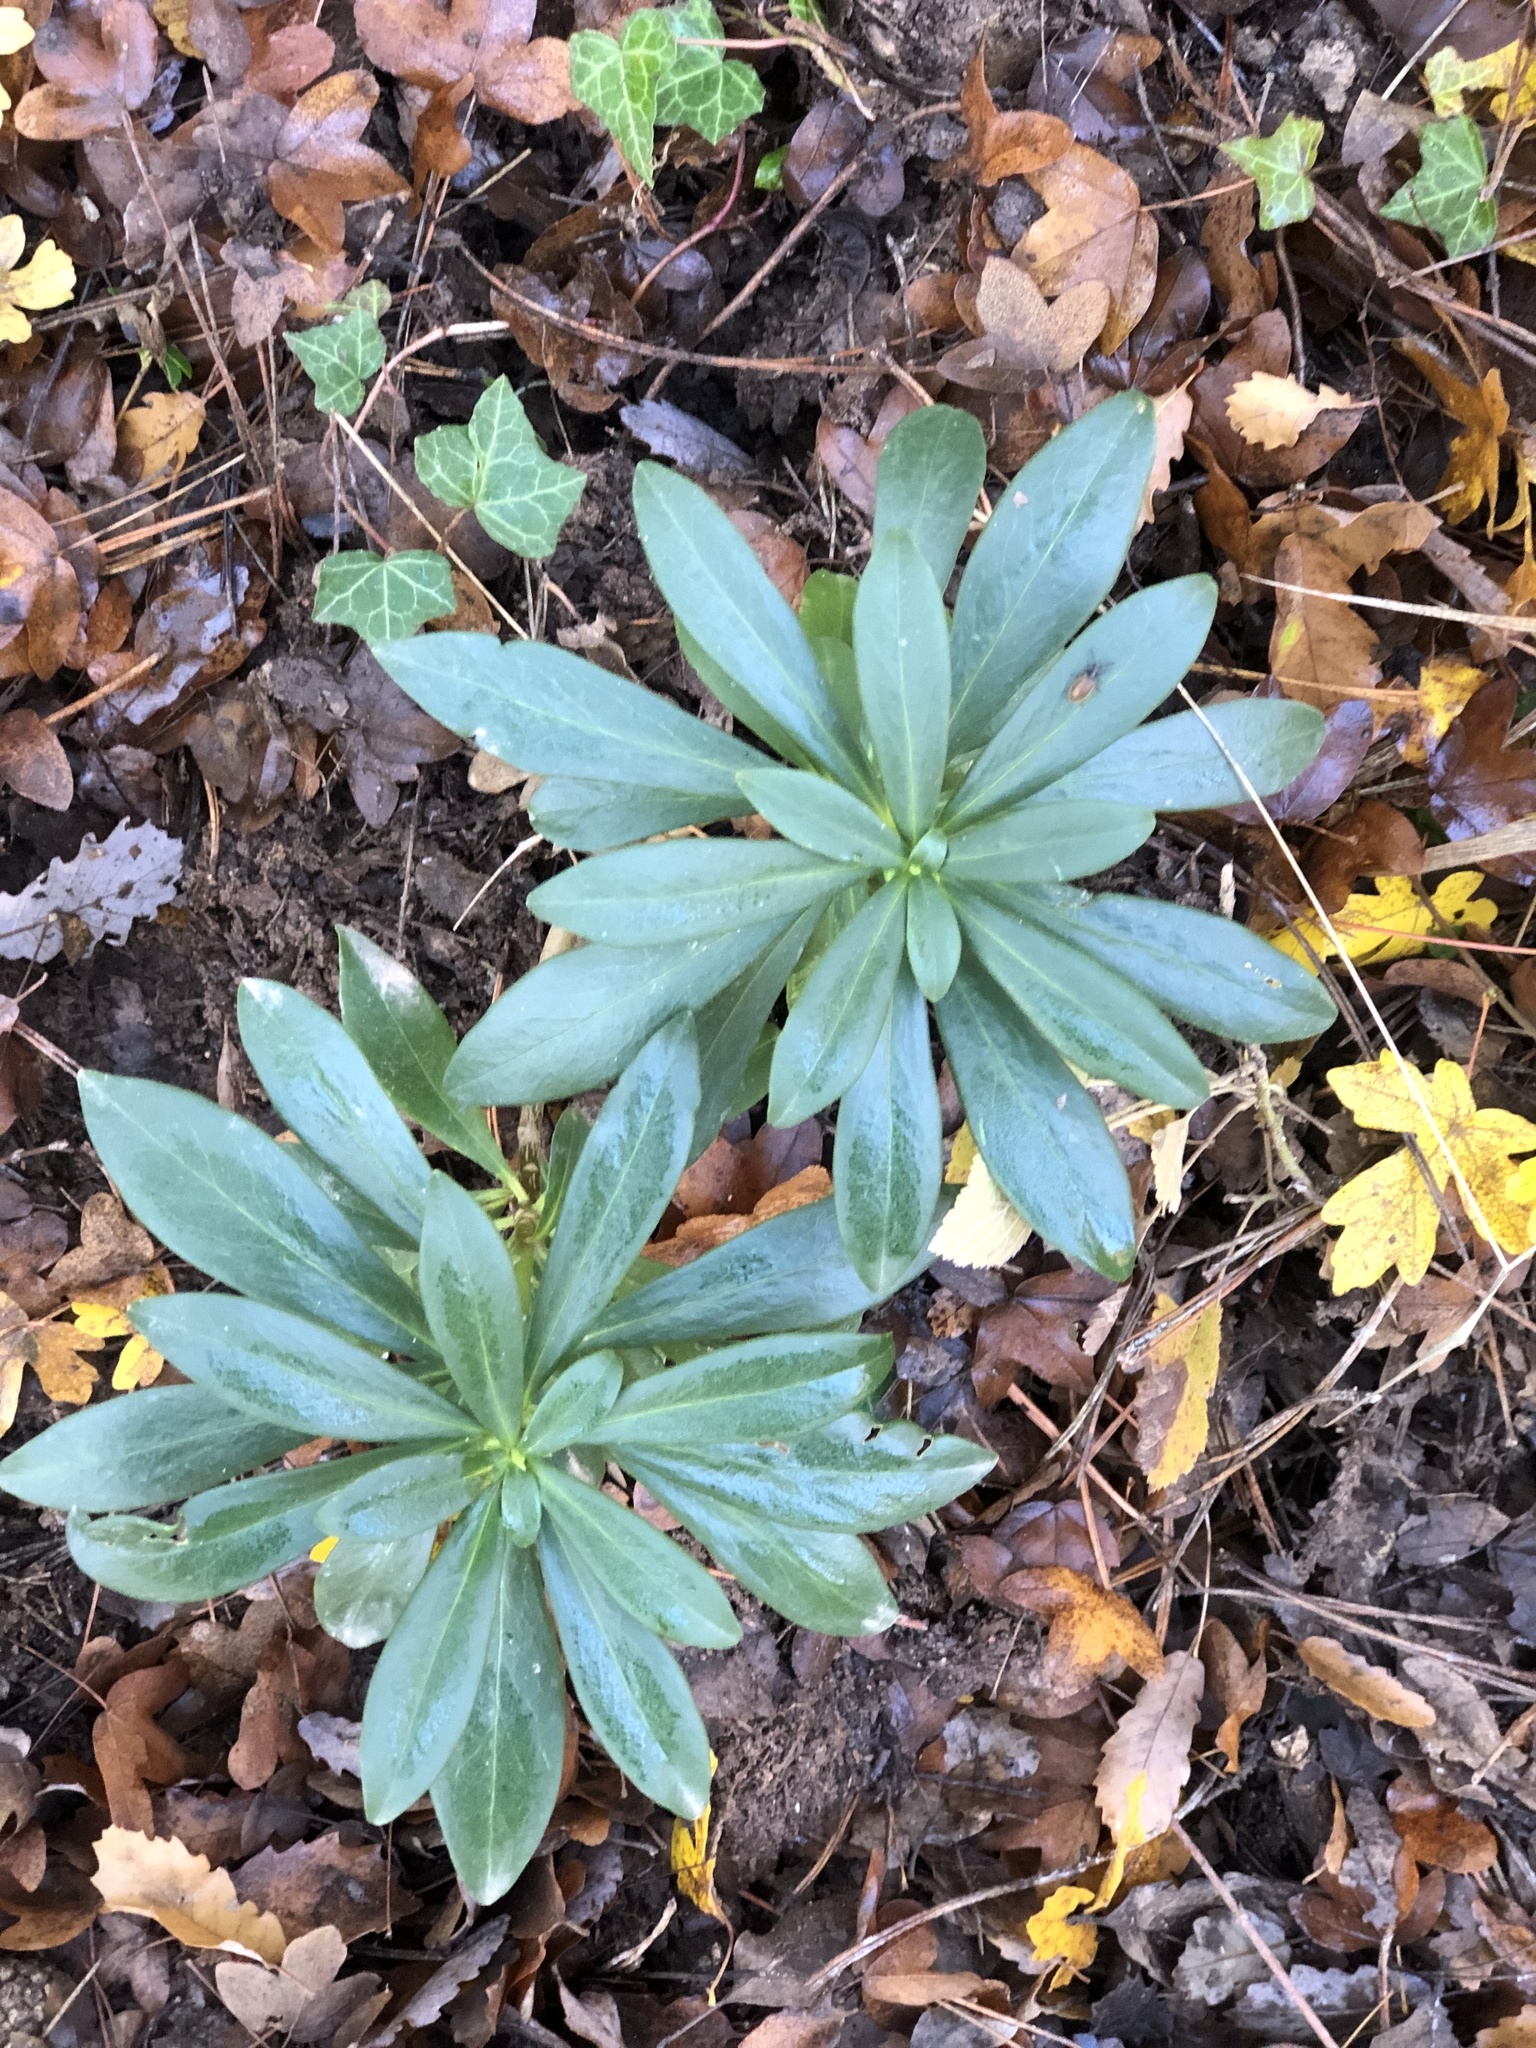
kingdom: Plantae
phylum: Tracheophyta
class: Magnoliopsida
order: Malvales
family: Thymelaeaceae
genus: Daphne
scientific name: Daphne laureola
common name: Spurge-laurel
